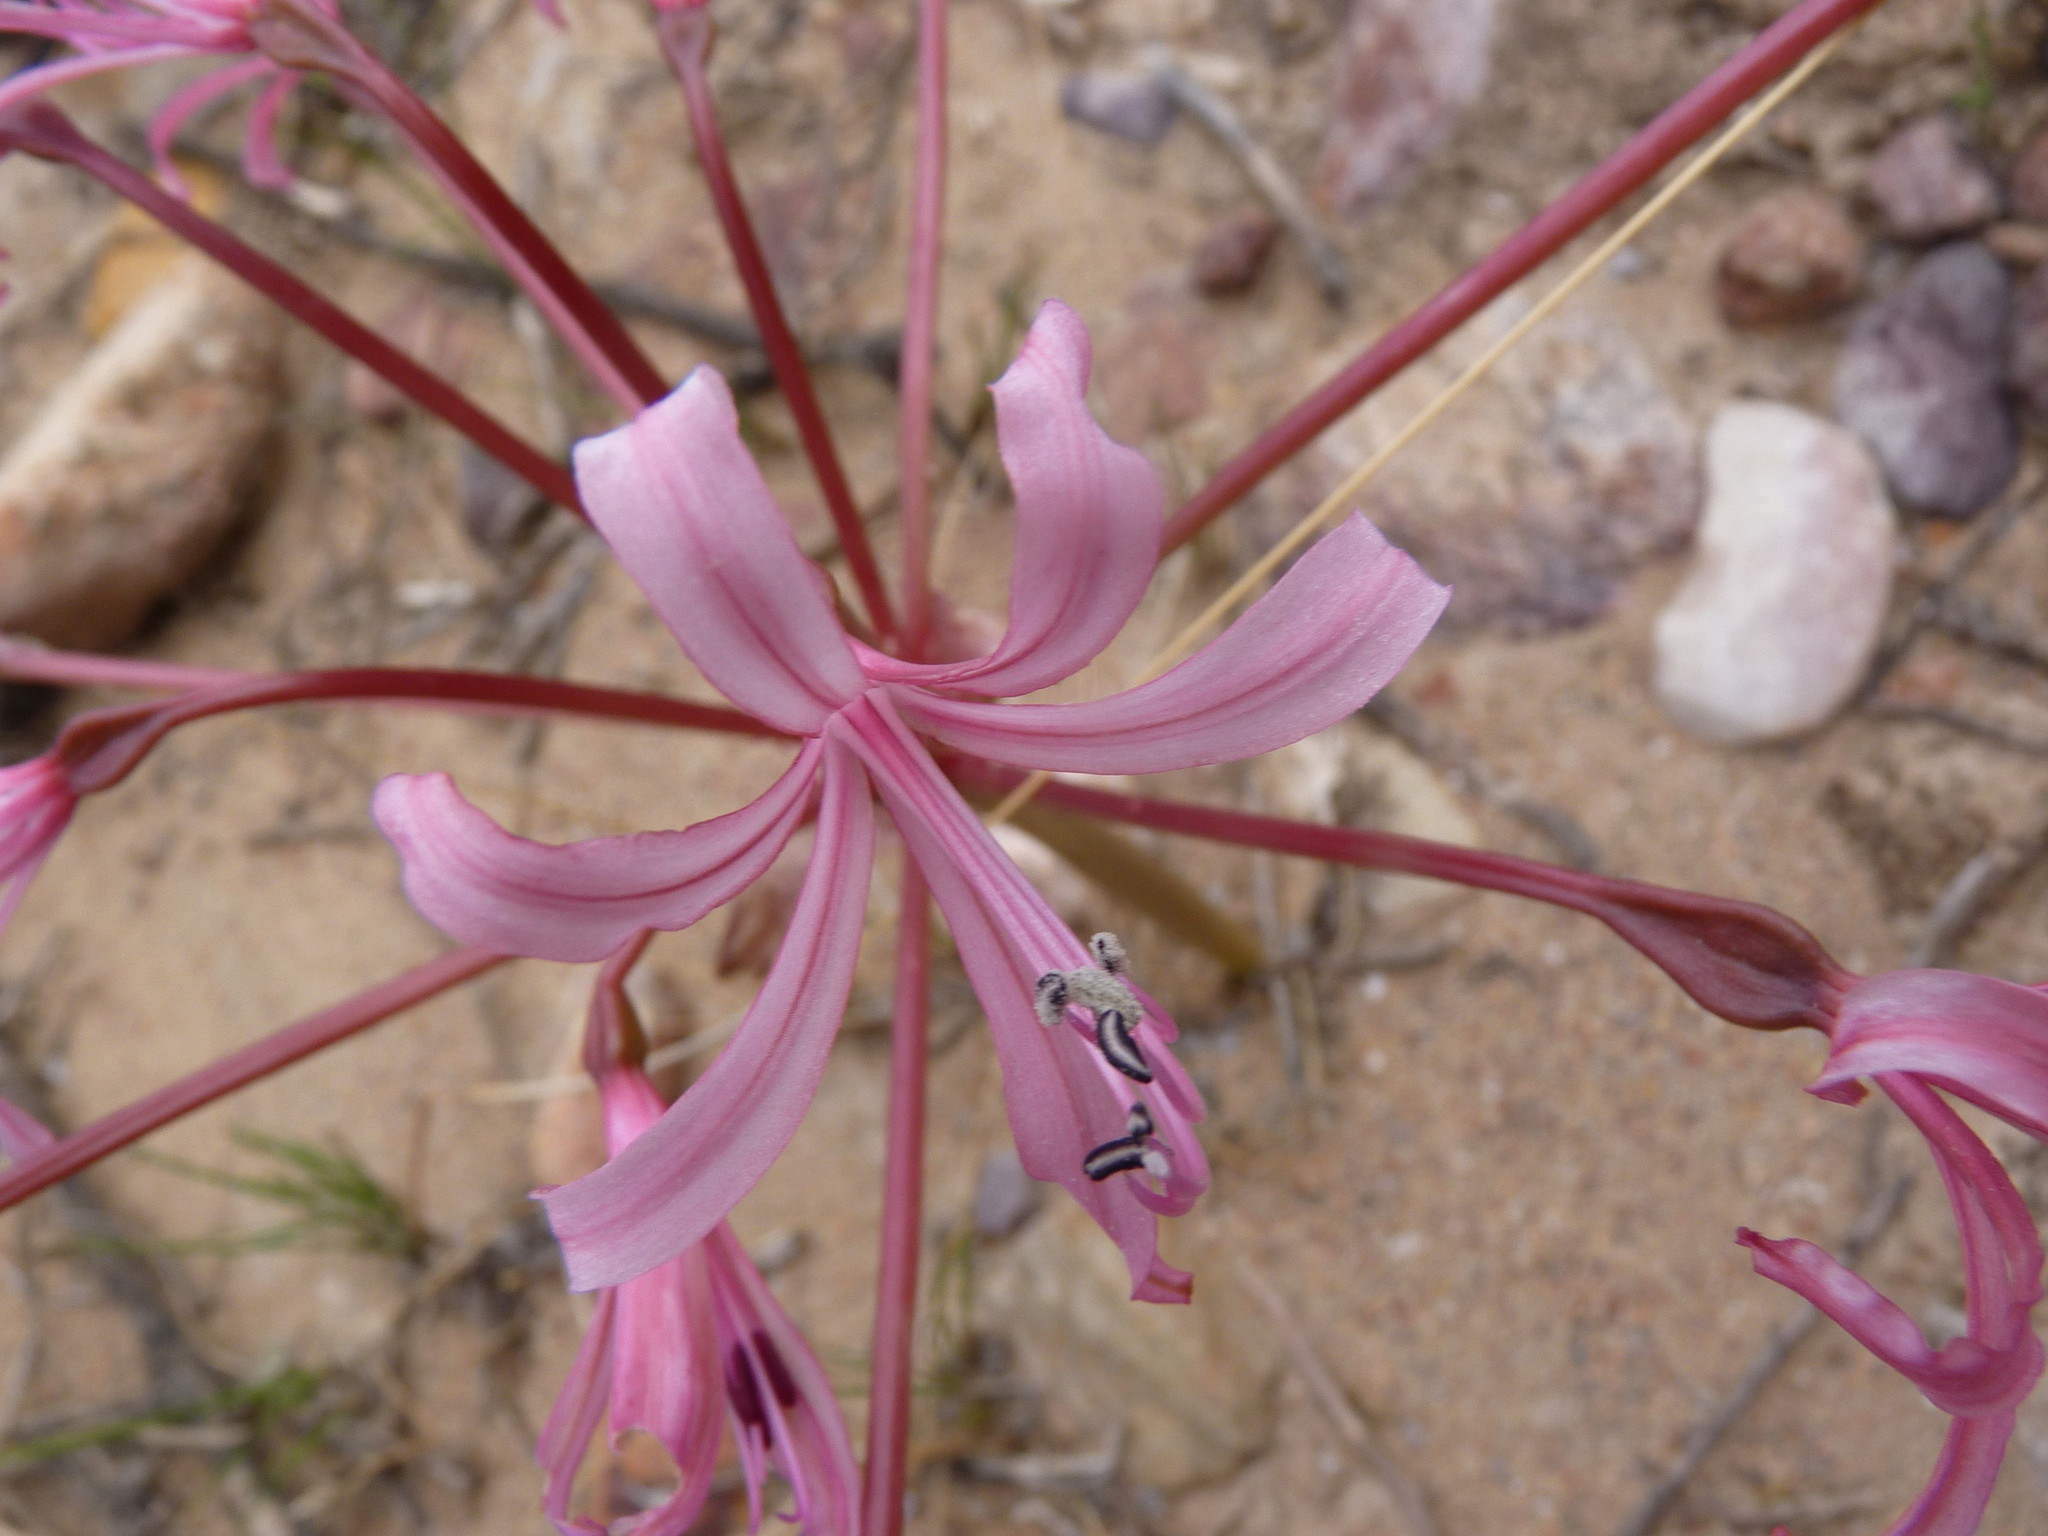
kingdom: Plantae
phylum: Tracheophyta
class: Liliopsida
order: Asparagales
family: Amaryllidaceae
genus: Brunsvigia
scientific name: Brunsvigia nervosa
